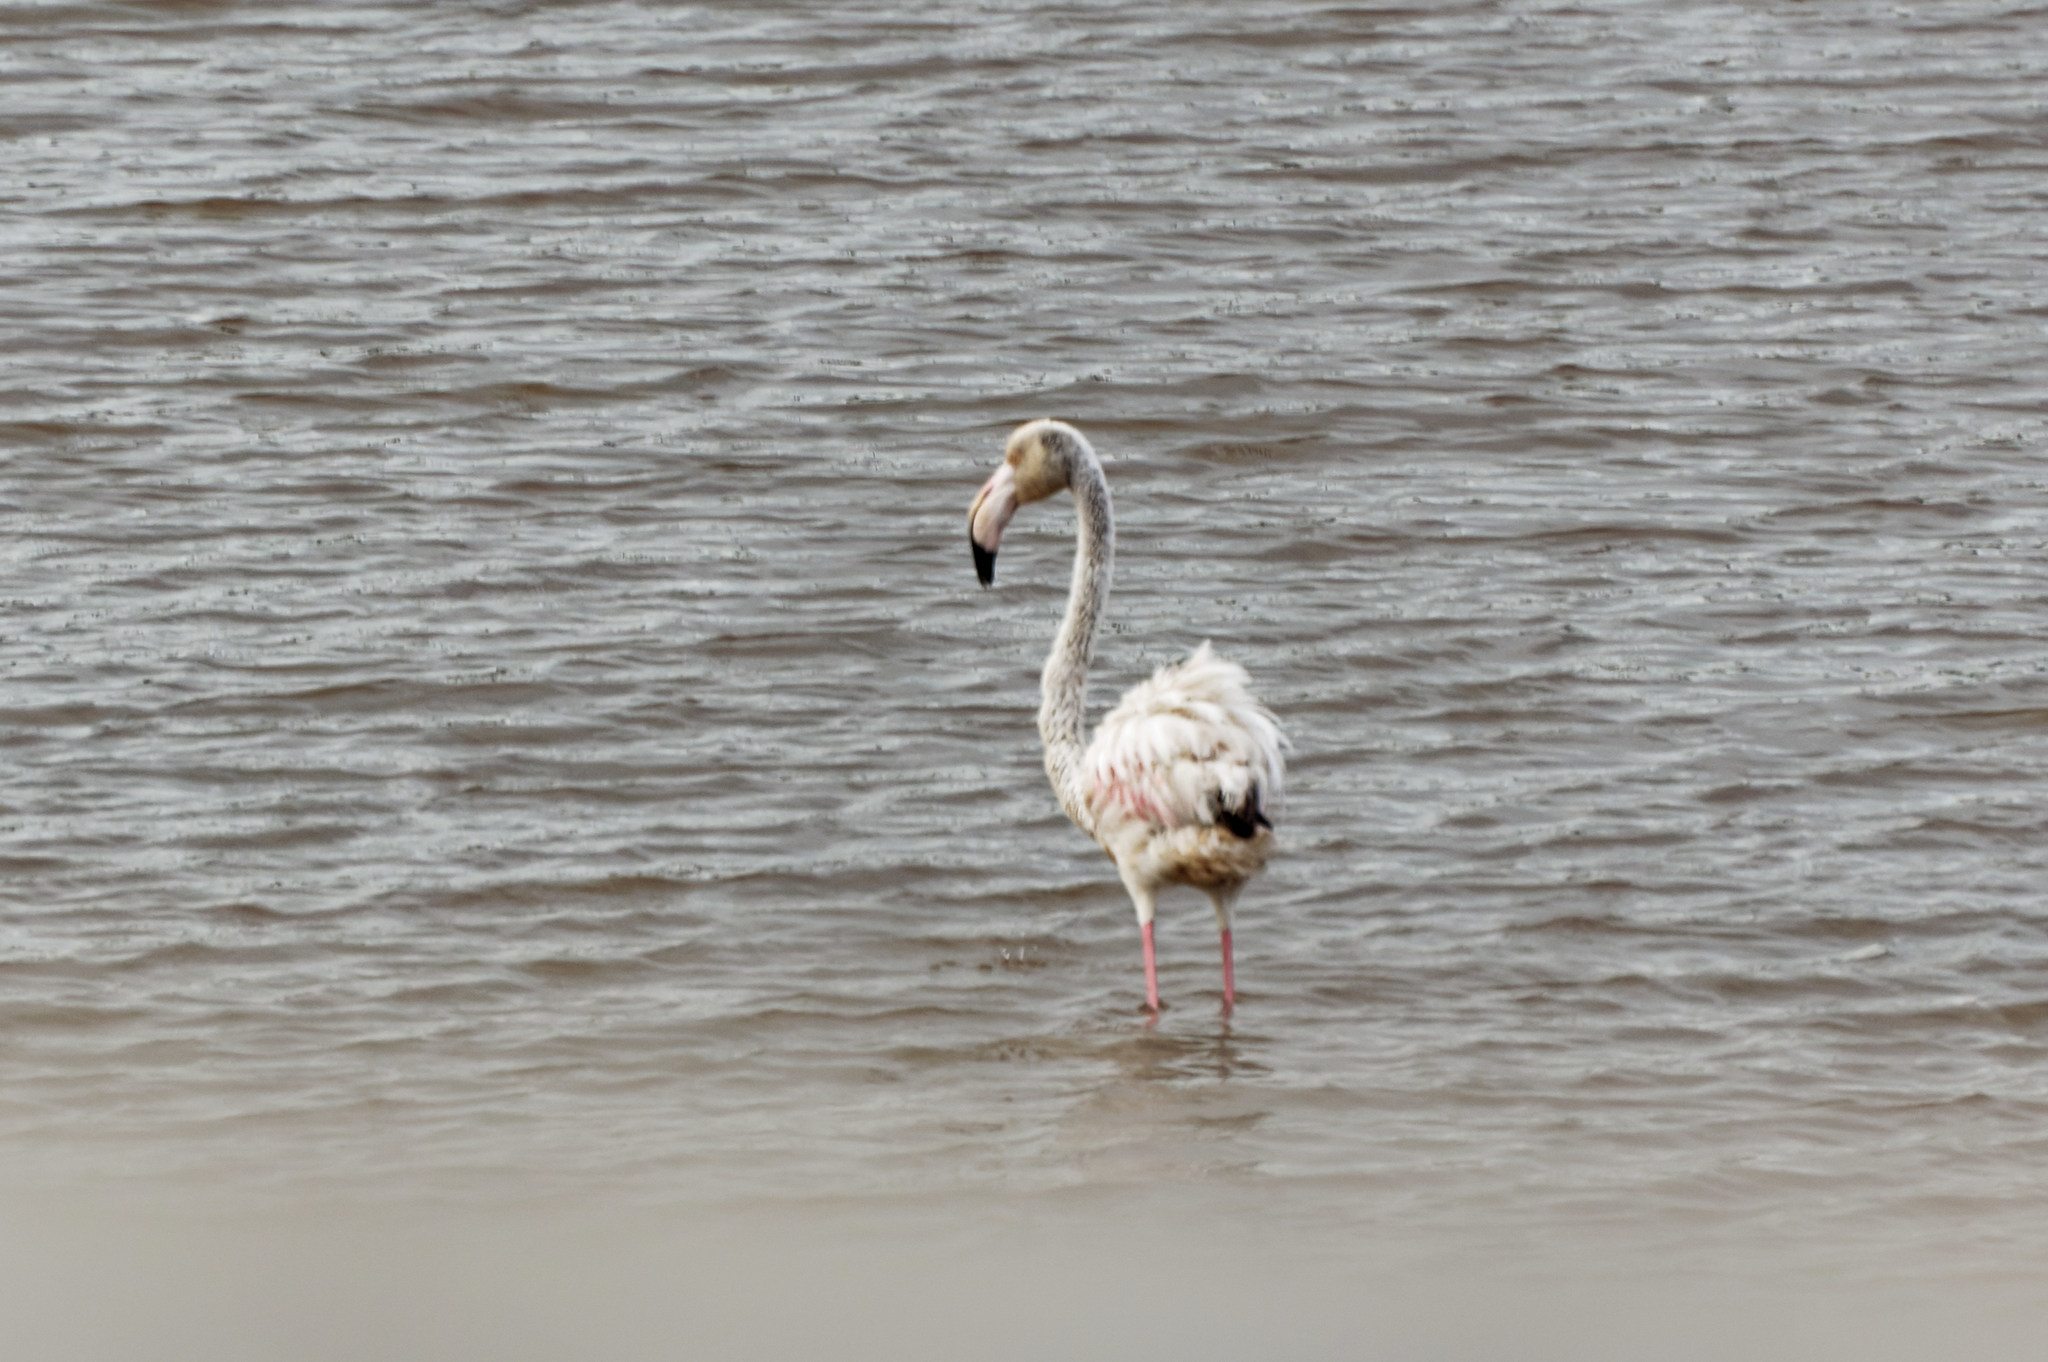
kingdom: Animalia
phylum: Chordata
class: Aves
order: Phoenicopteriformes
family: Phoenicopteridae
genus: Phoenicopterus
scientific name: Phoenicopterus roseus
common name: Greater flamingo
